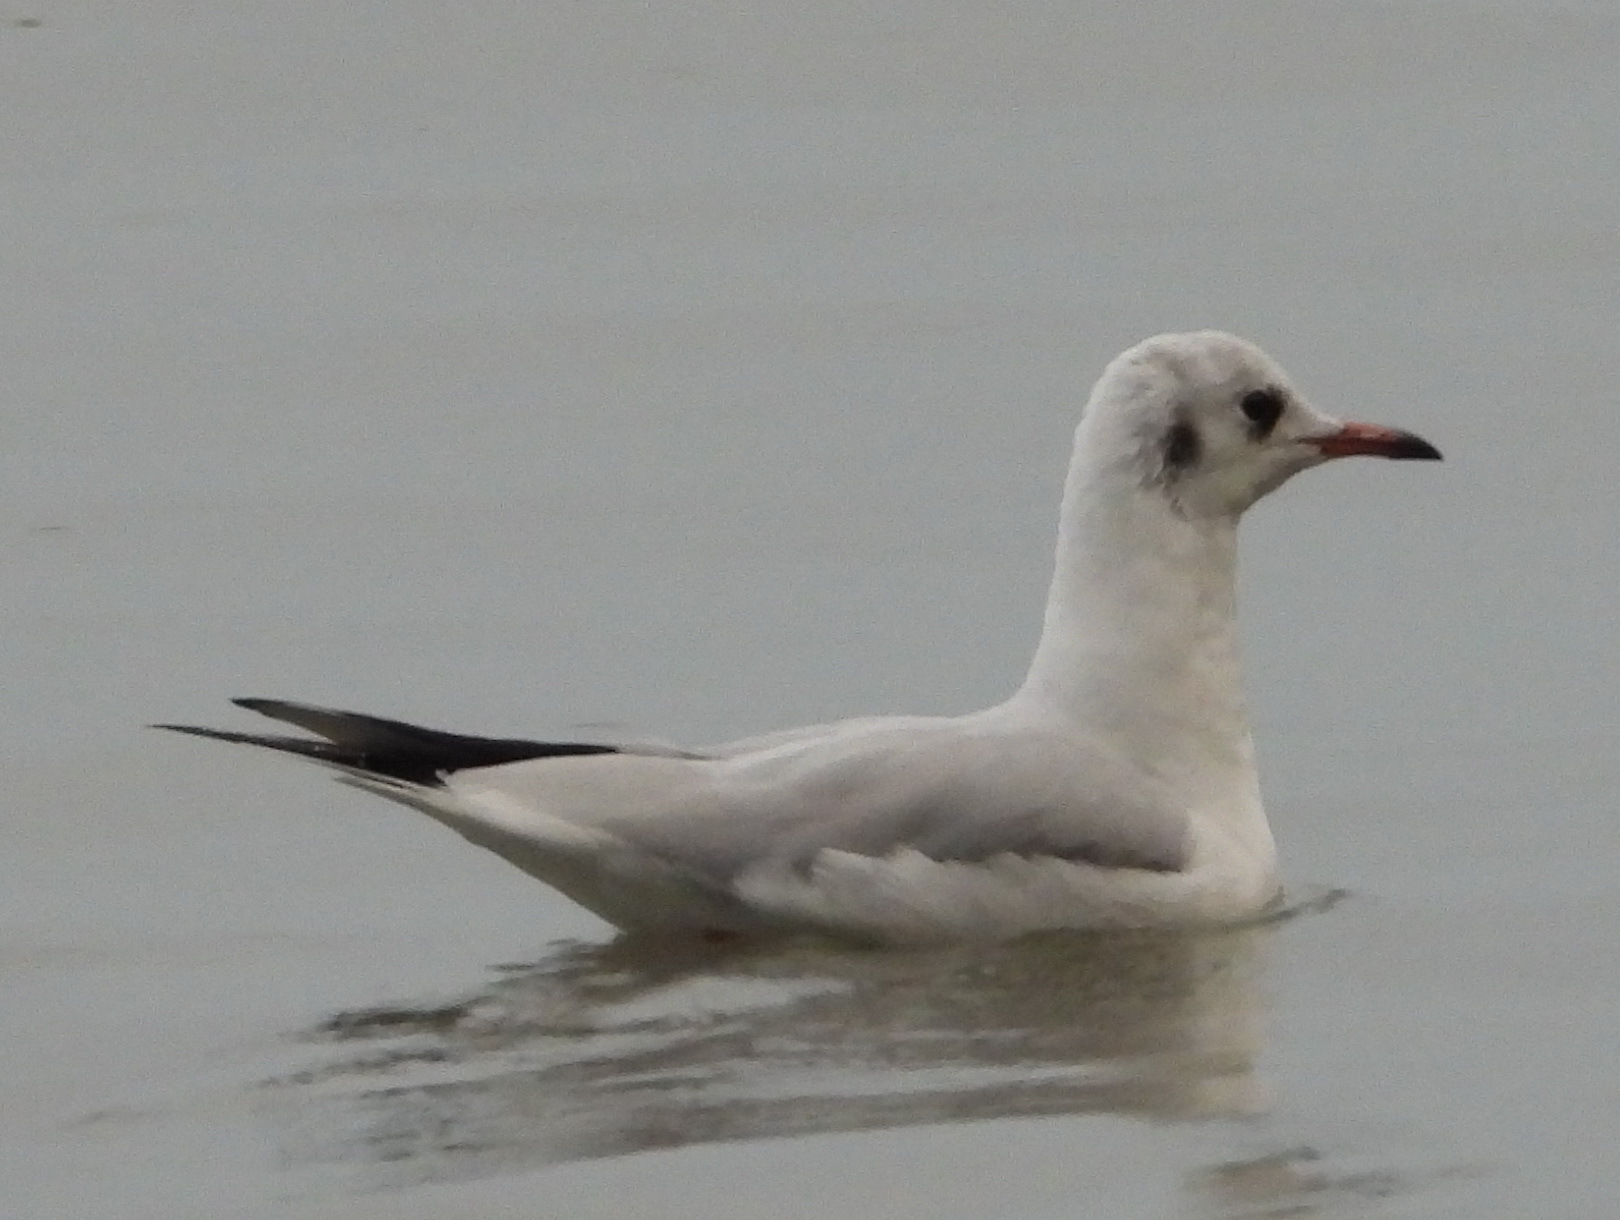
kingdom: Animalia
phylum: Chordata
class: Aves
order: Charadriiformes
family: Laridae
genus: Chroicocephalus
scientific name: Chroicocephalus ridibundus
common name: Black-headed gull
